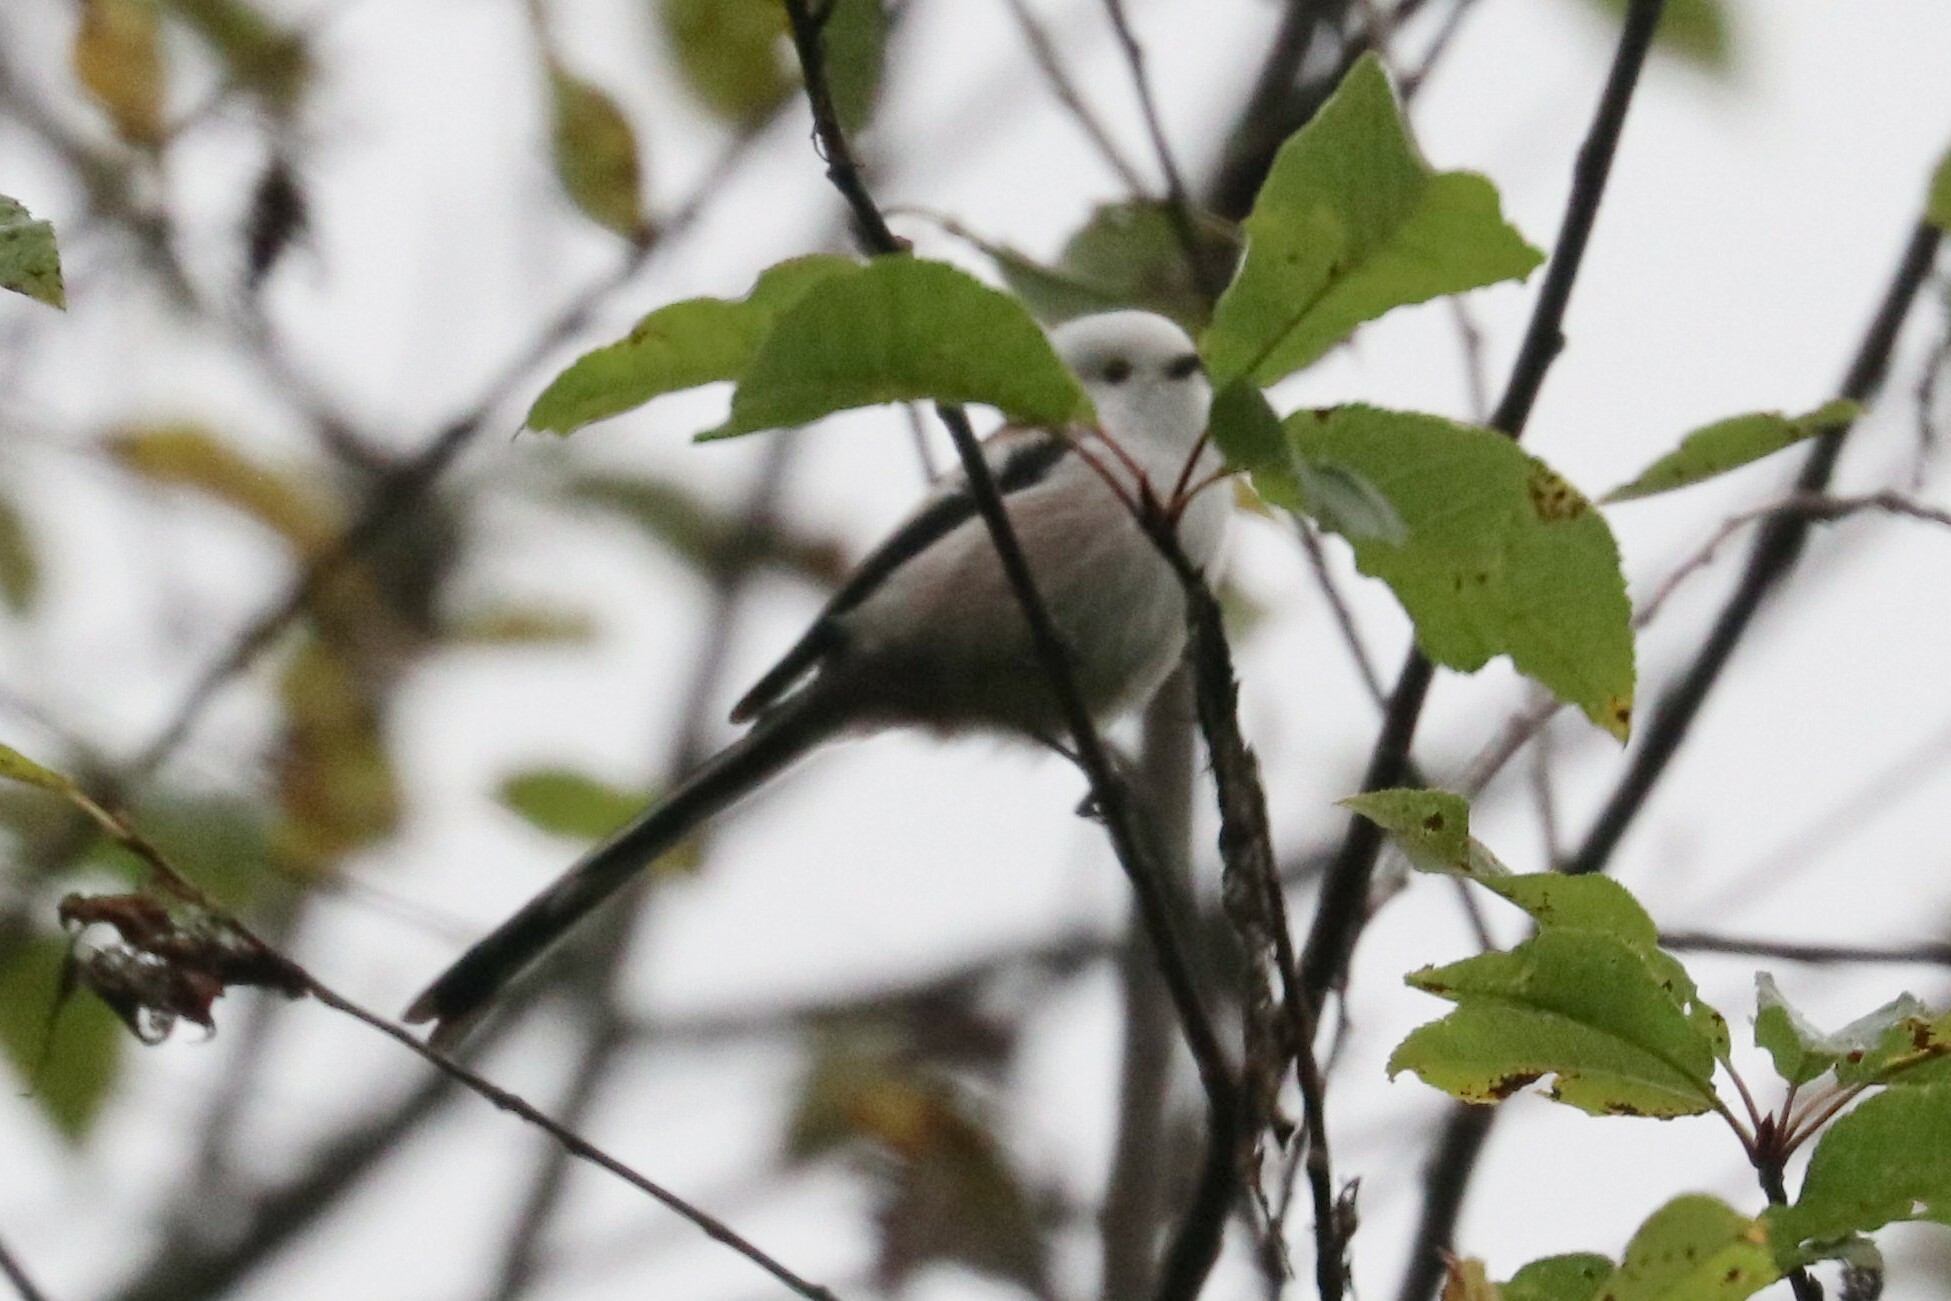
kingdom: Animalia
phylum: Chordata
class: Aves
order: Passeriformes
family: Aegithalidae
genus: Aegithalos
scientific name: Aegithalos caudatus
